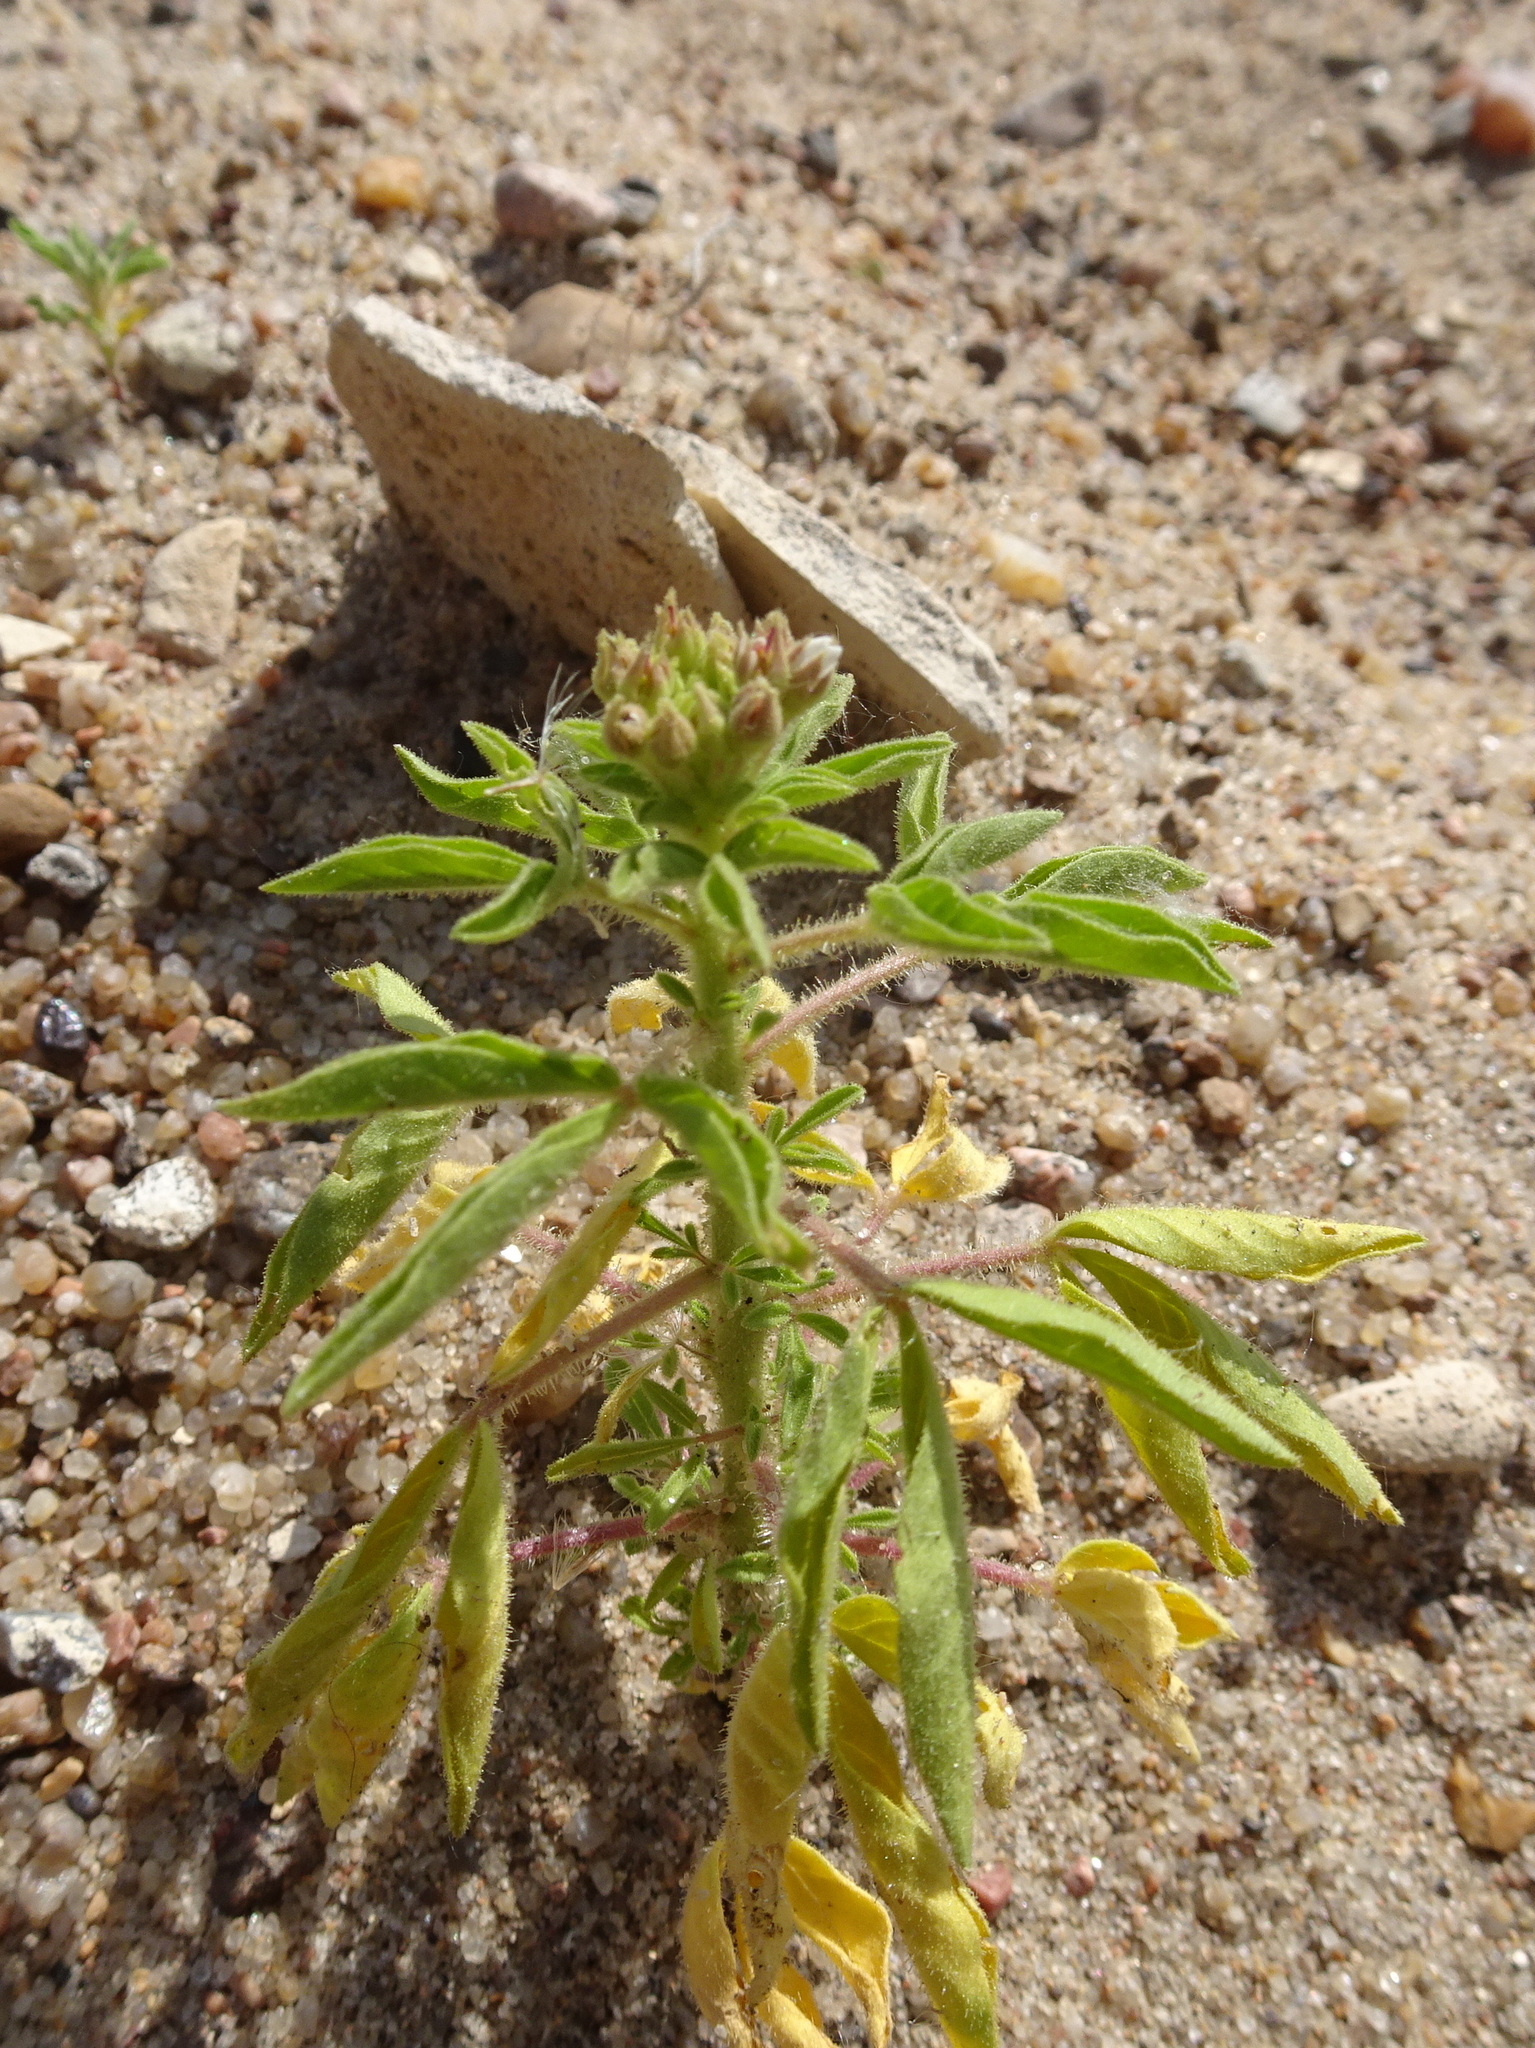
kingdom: Plantae
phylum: Tracheophyta
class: Magnoliopsida
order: Brassicales
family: Cleomaceae
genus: Polanisia
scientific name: Polanisia dodecandra
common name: Clammyweed
